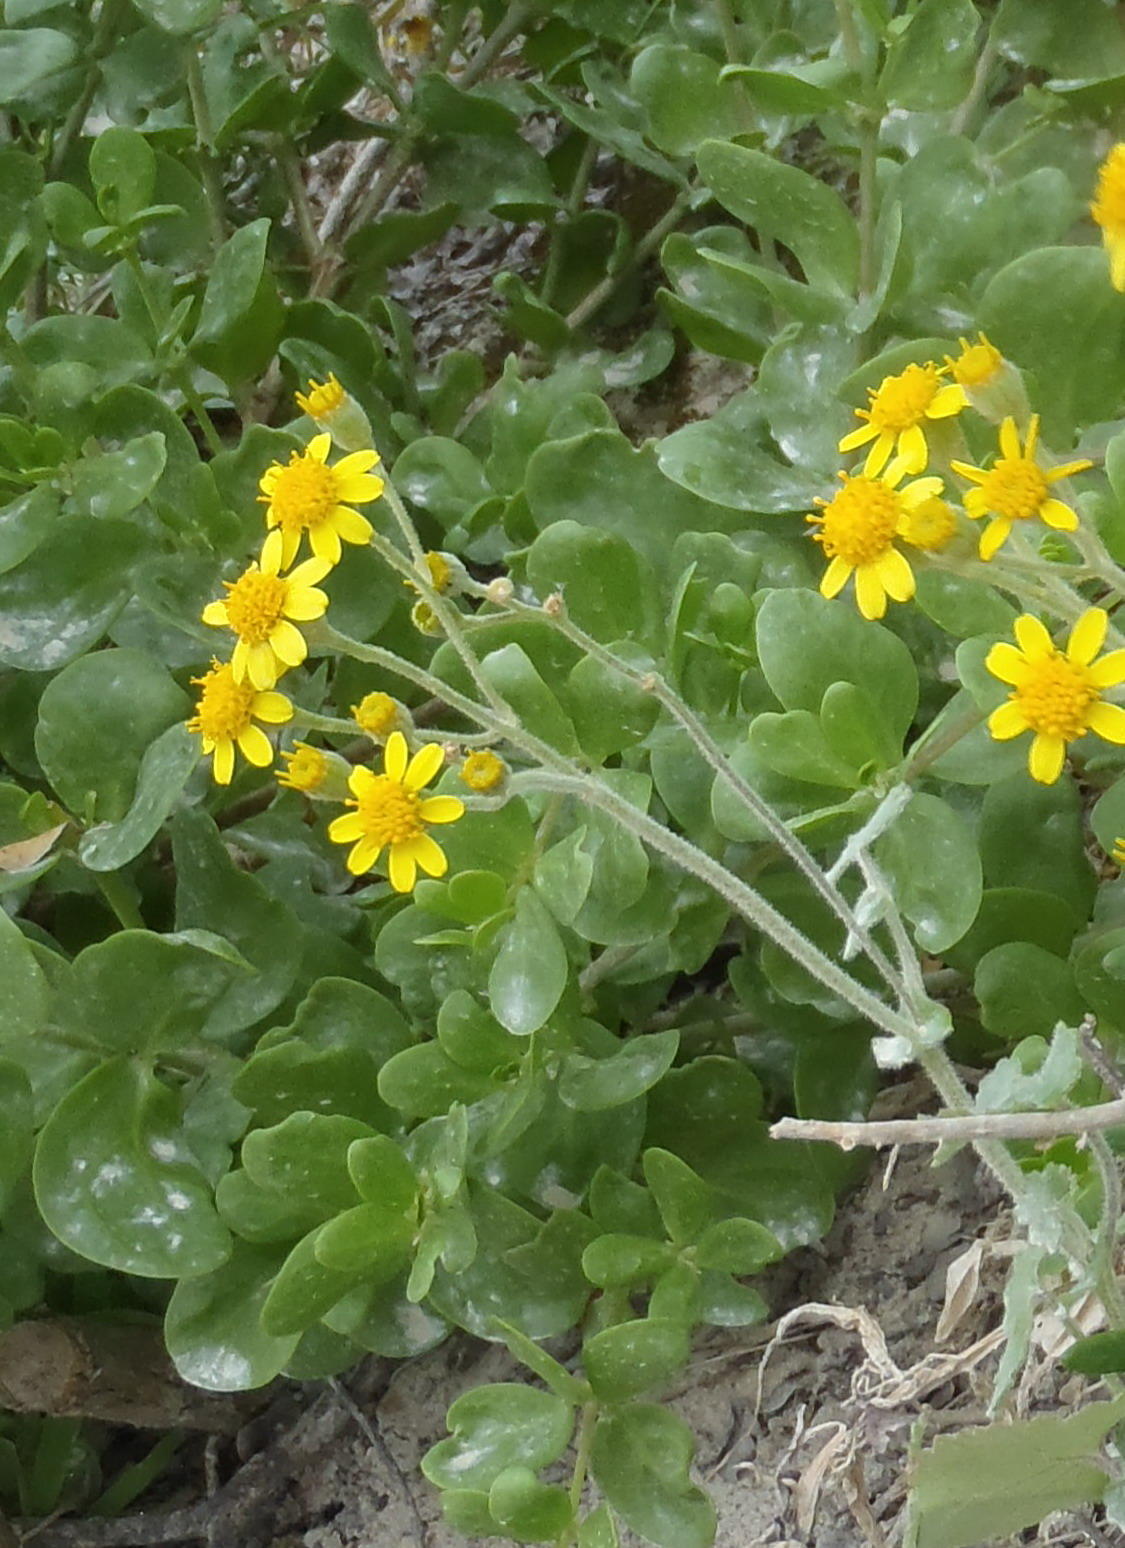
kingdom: Plantae
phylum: Tracheophyta
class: Magnoliopsida
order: Asterales
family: Asteraceae
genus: Cineraria
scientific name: Cineraria geifolia
